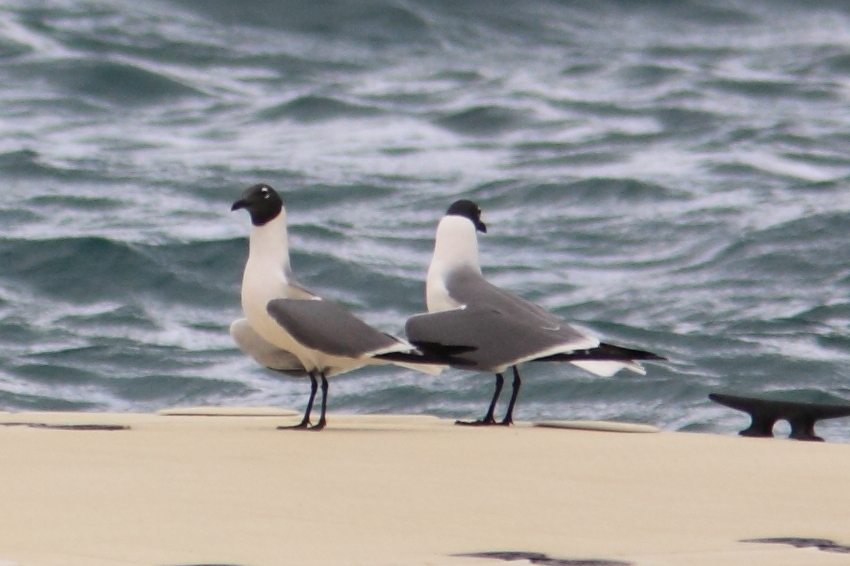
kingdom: Animalia
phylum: Chordata
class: Aves
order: Charadriiformes
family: Laridae
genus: Leucophaeus
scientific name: Leucophaeus atricilla
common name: Laughing gull
